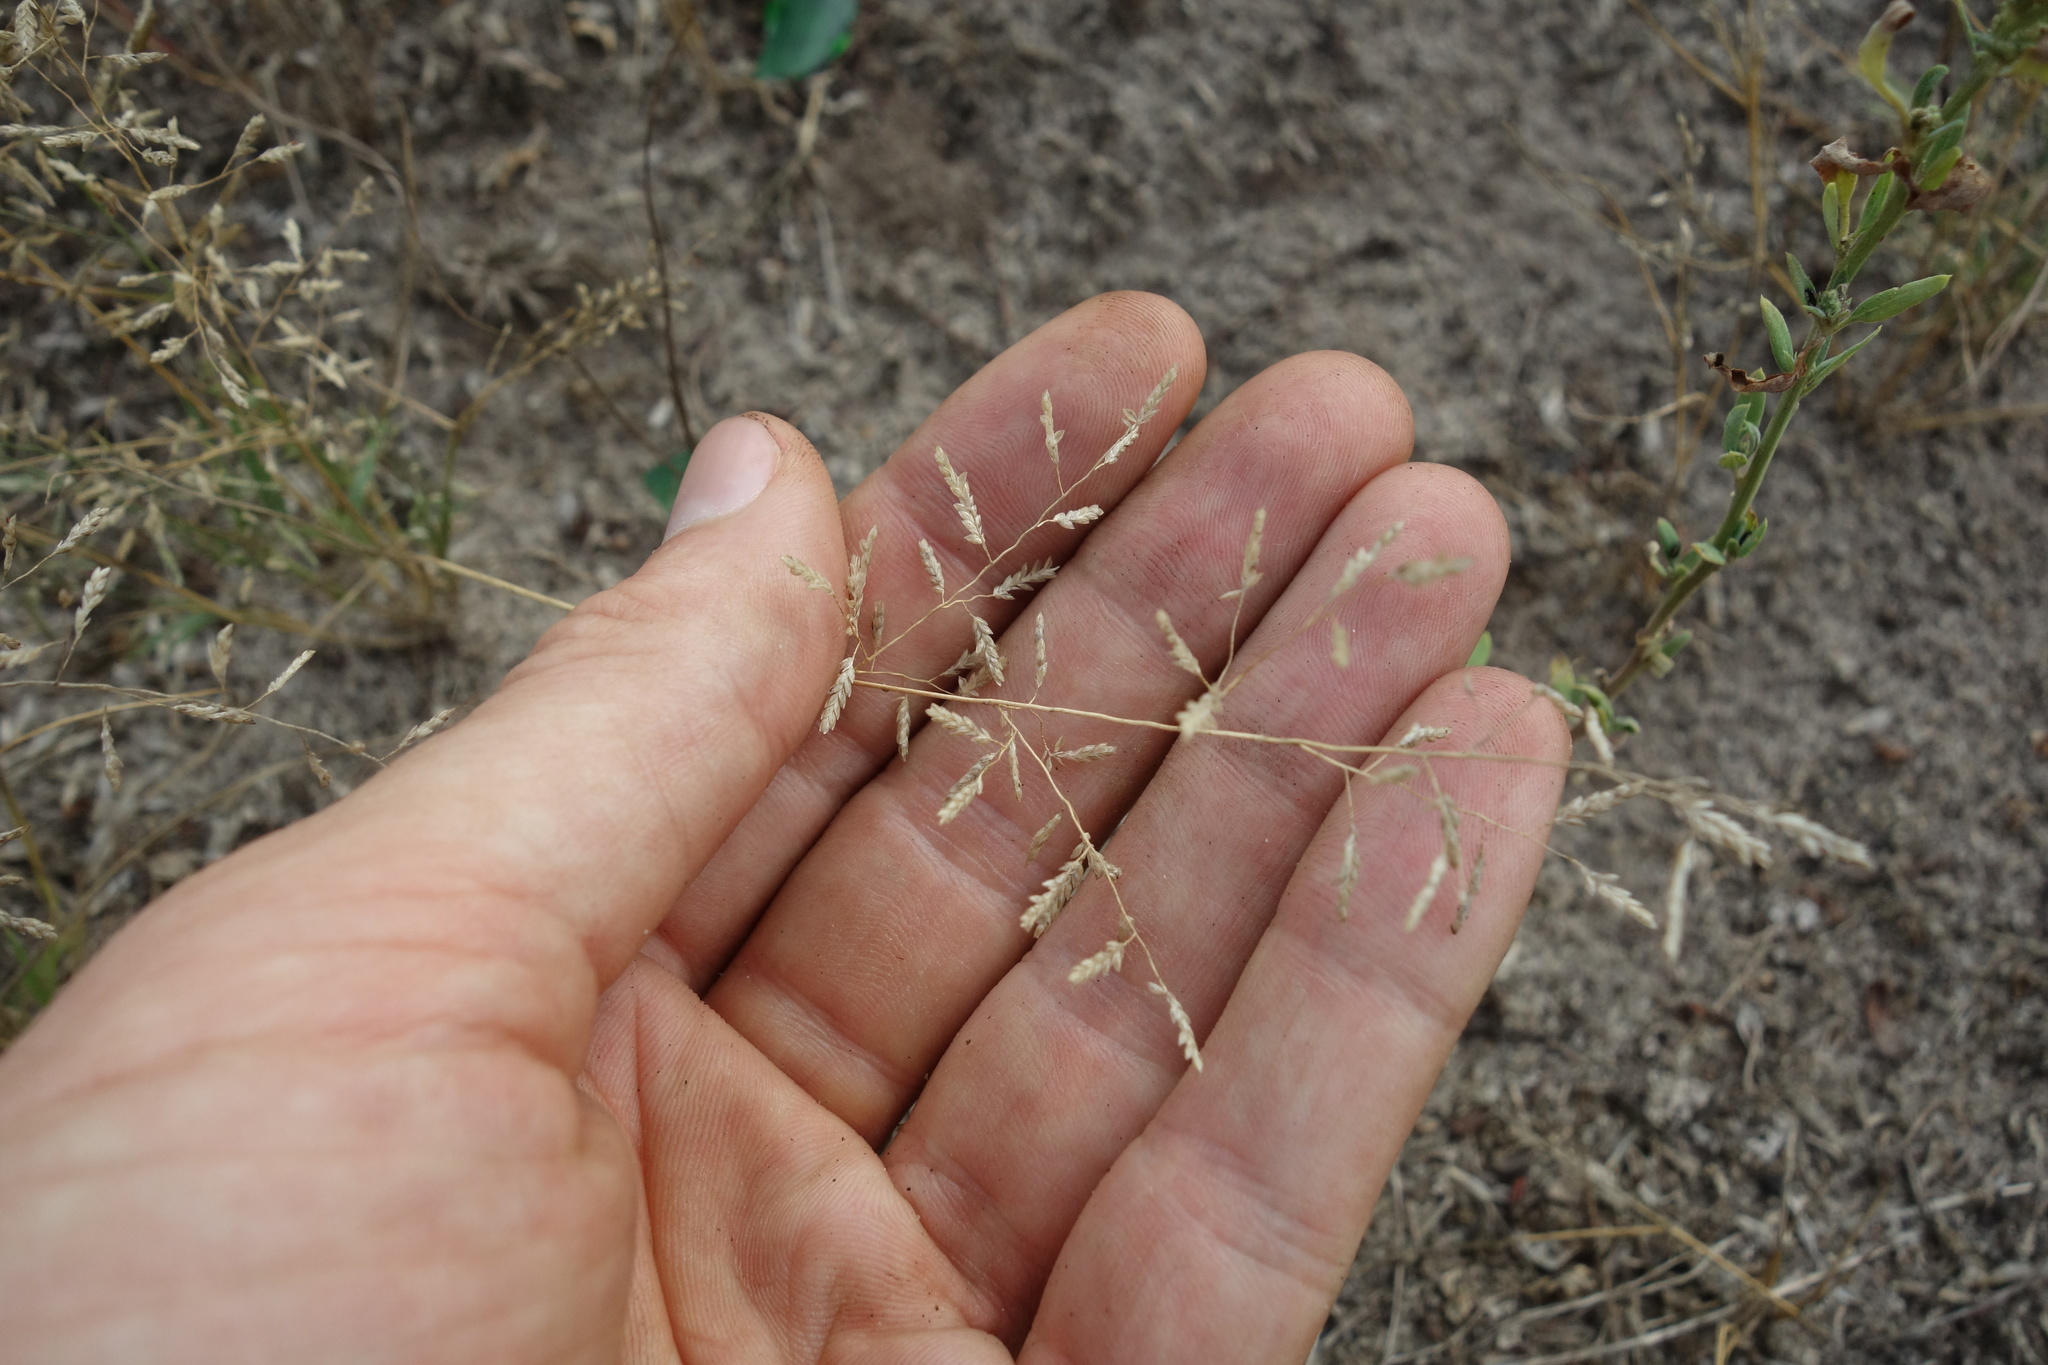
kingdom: Plantae
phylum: Tracheophyta
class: Liliopsida
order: Poales
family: Poaceae
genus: Eragrostis
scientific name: Eragrostis minor
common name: Small love-grass
